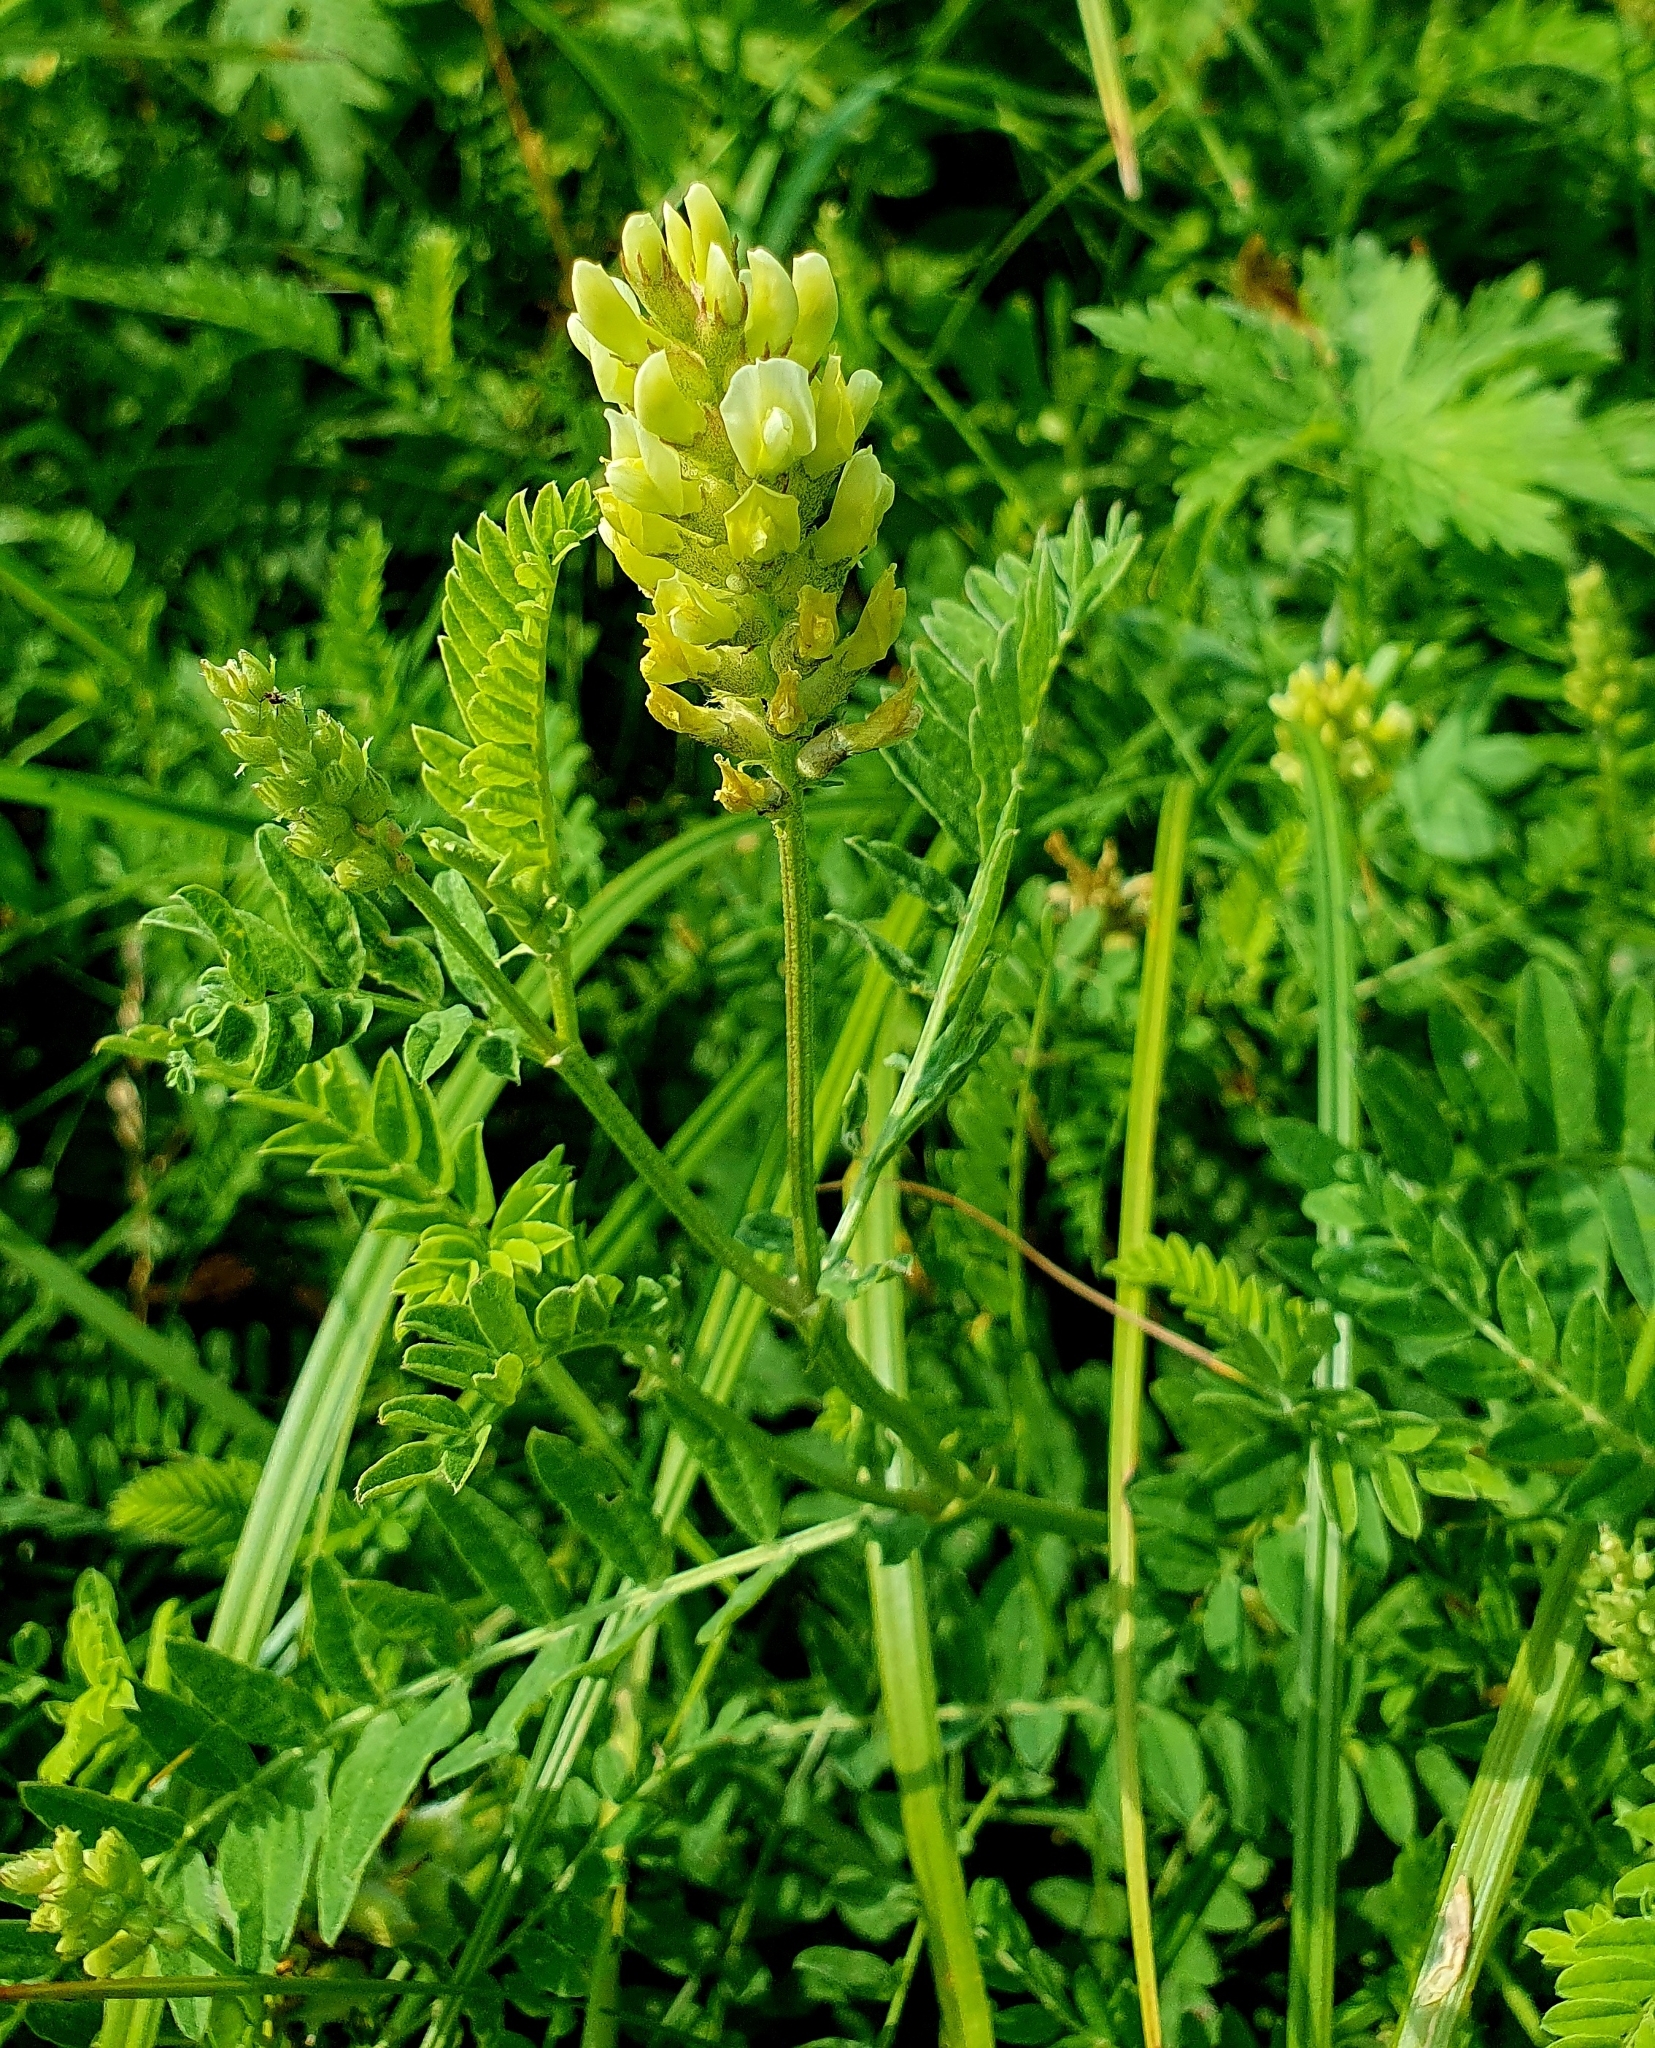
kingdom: Plantae
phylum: Tracheophyta
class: Magnoliopsida
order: Fabales
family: Fabaceae
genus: Astragalus
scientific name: Astragalus cicer
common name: Chick-pea milk-vetch
